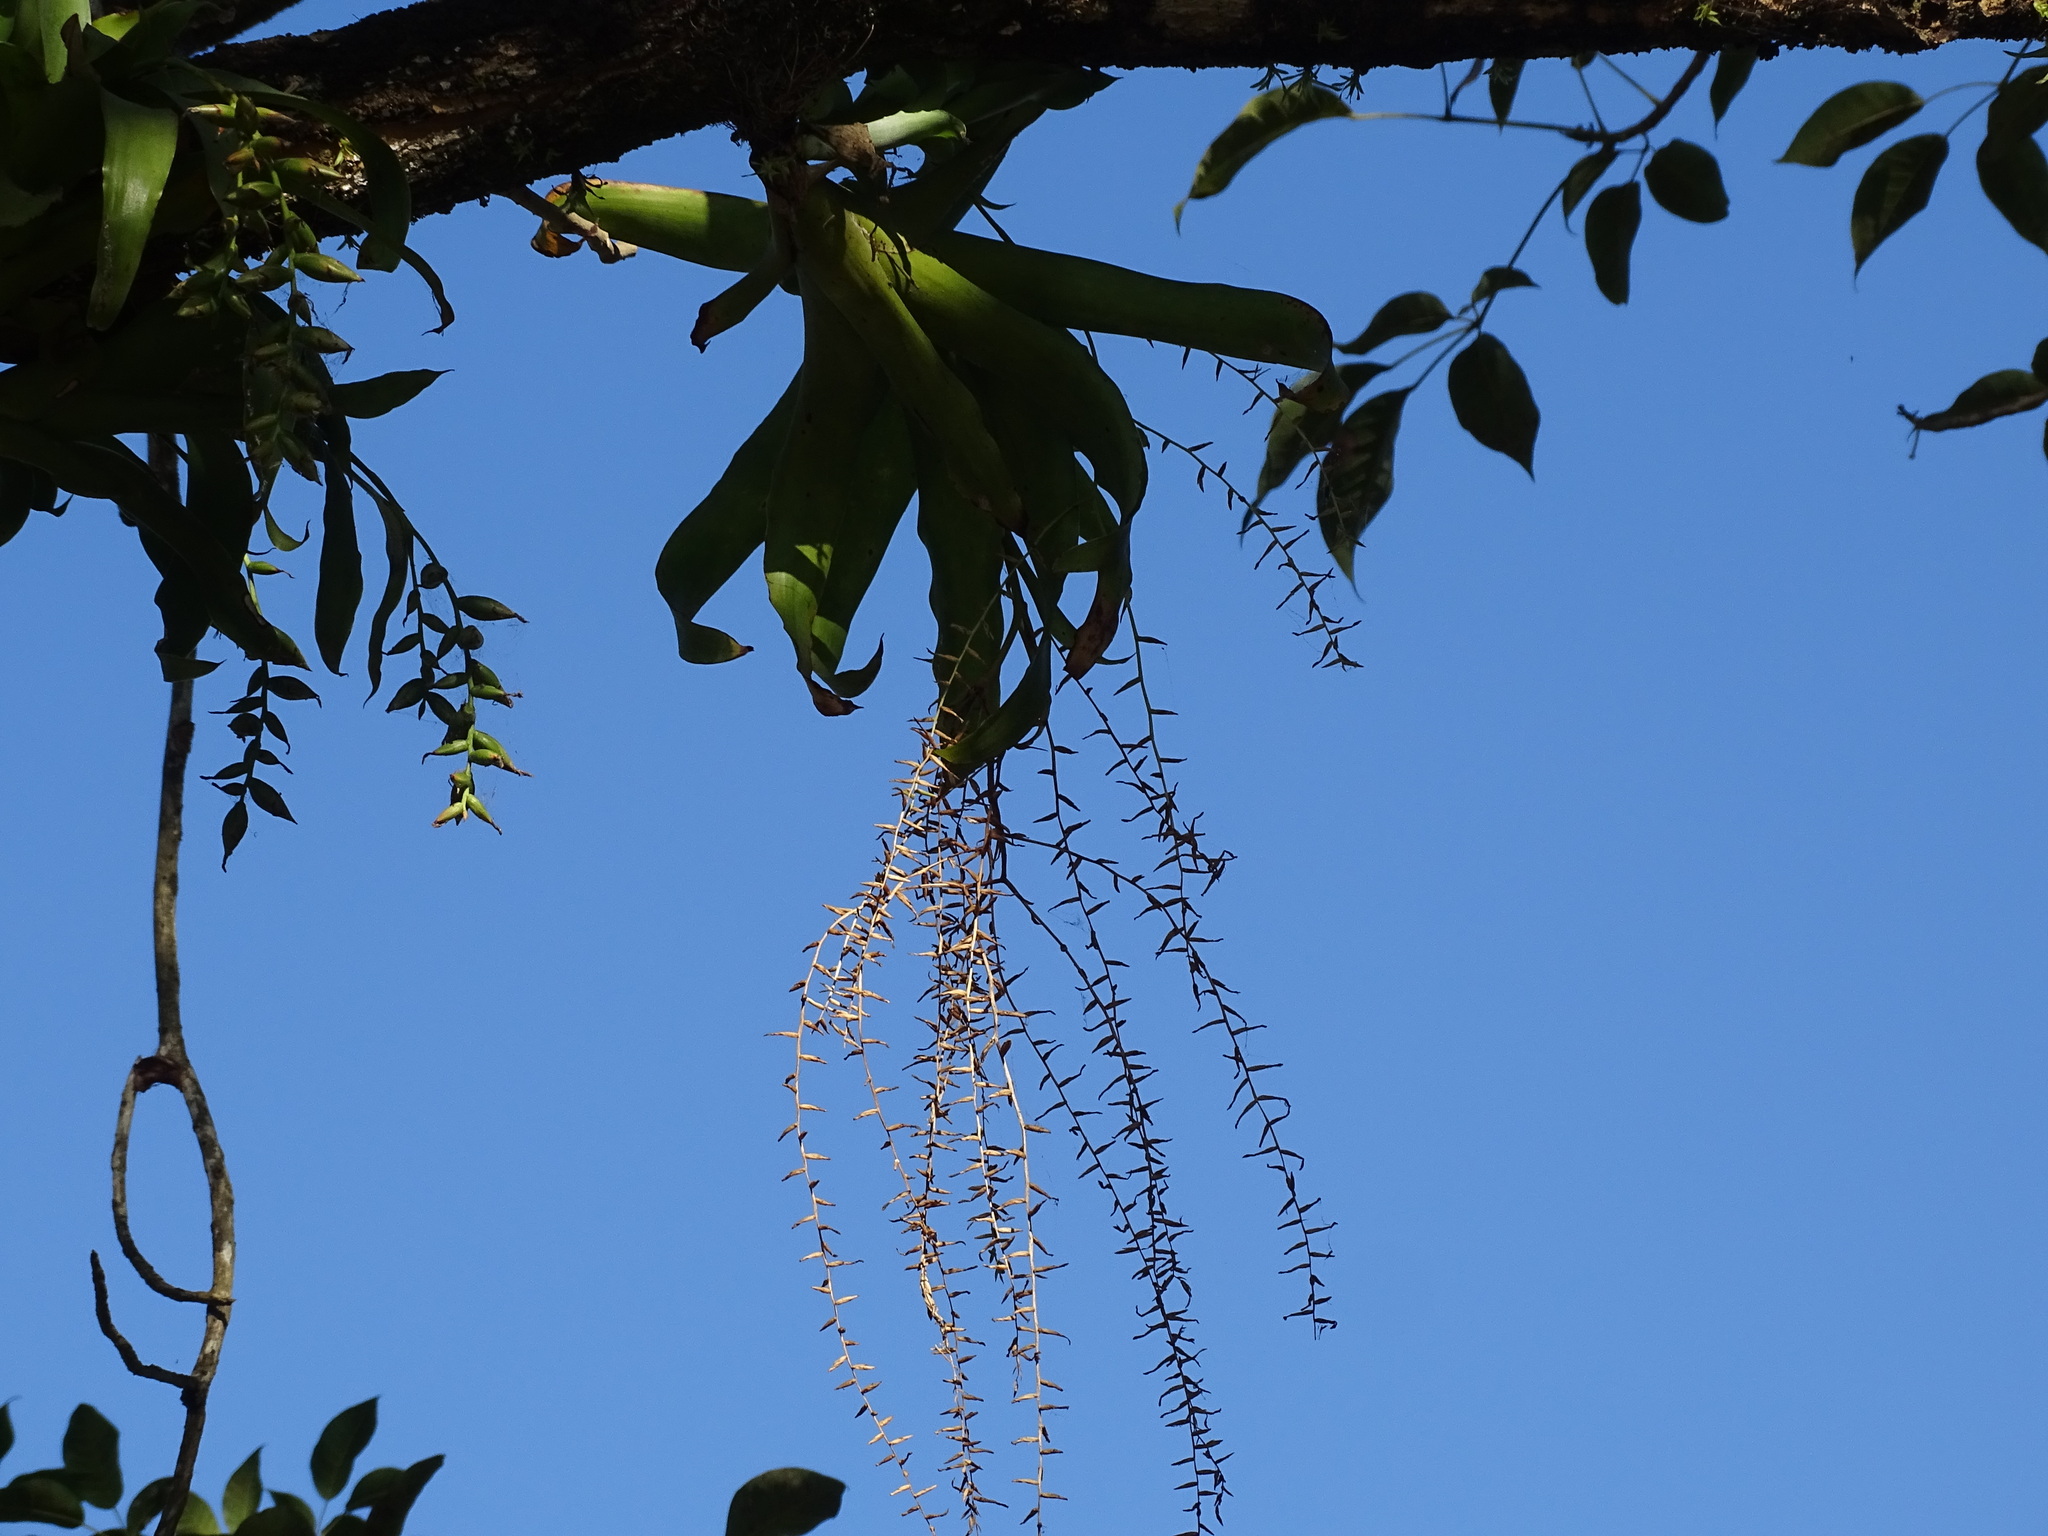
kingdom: Plantae
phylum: Tracheophyta
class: Liliopsida
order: Poales
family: Bromeliaceae
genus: Catopsis
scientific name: Catopsis nutans
